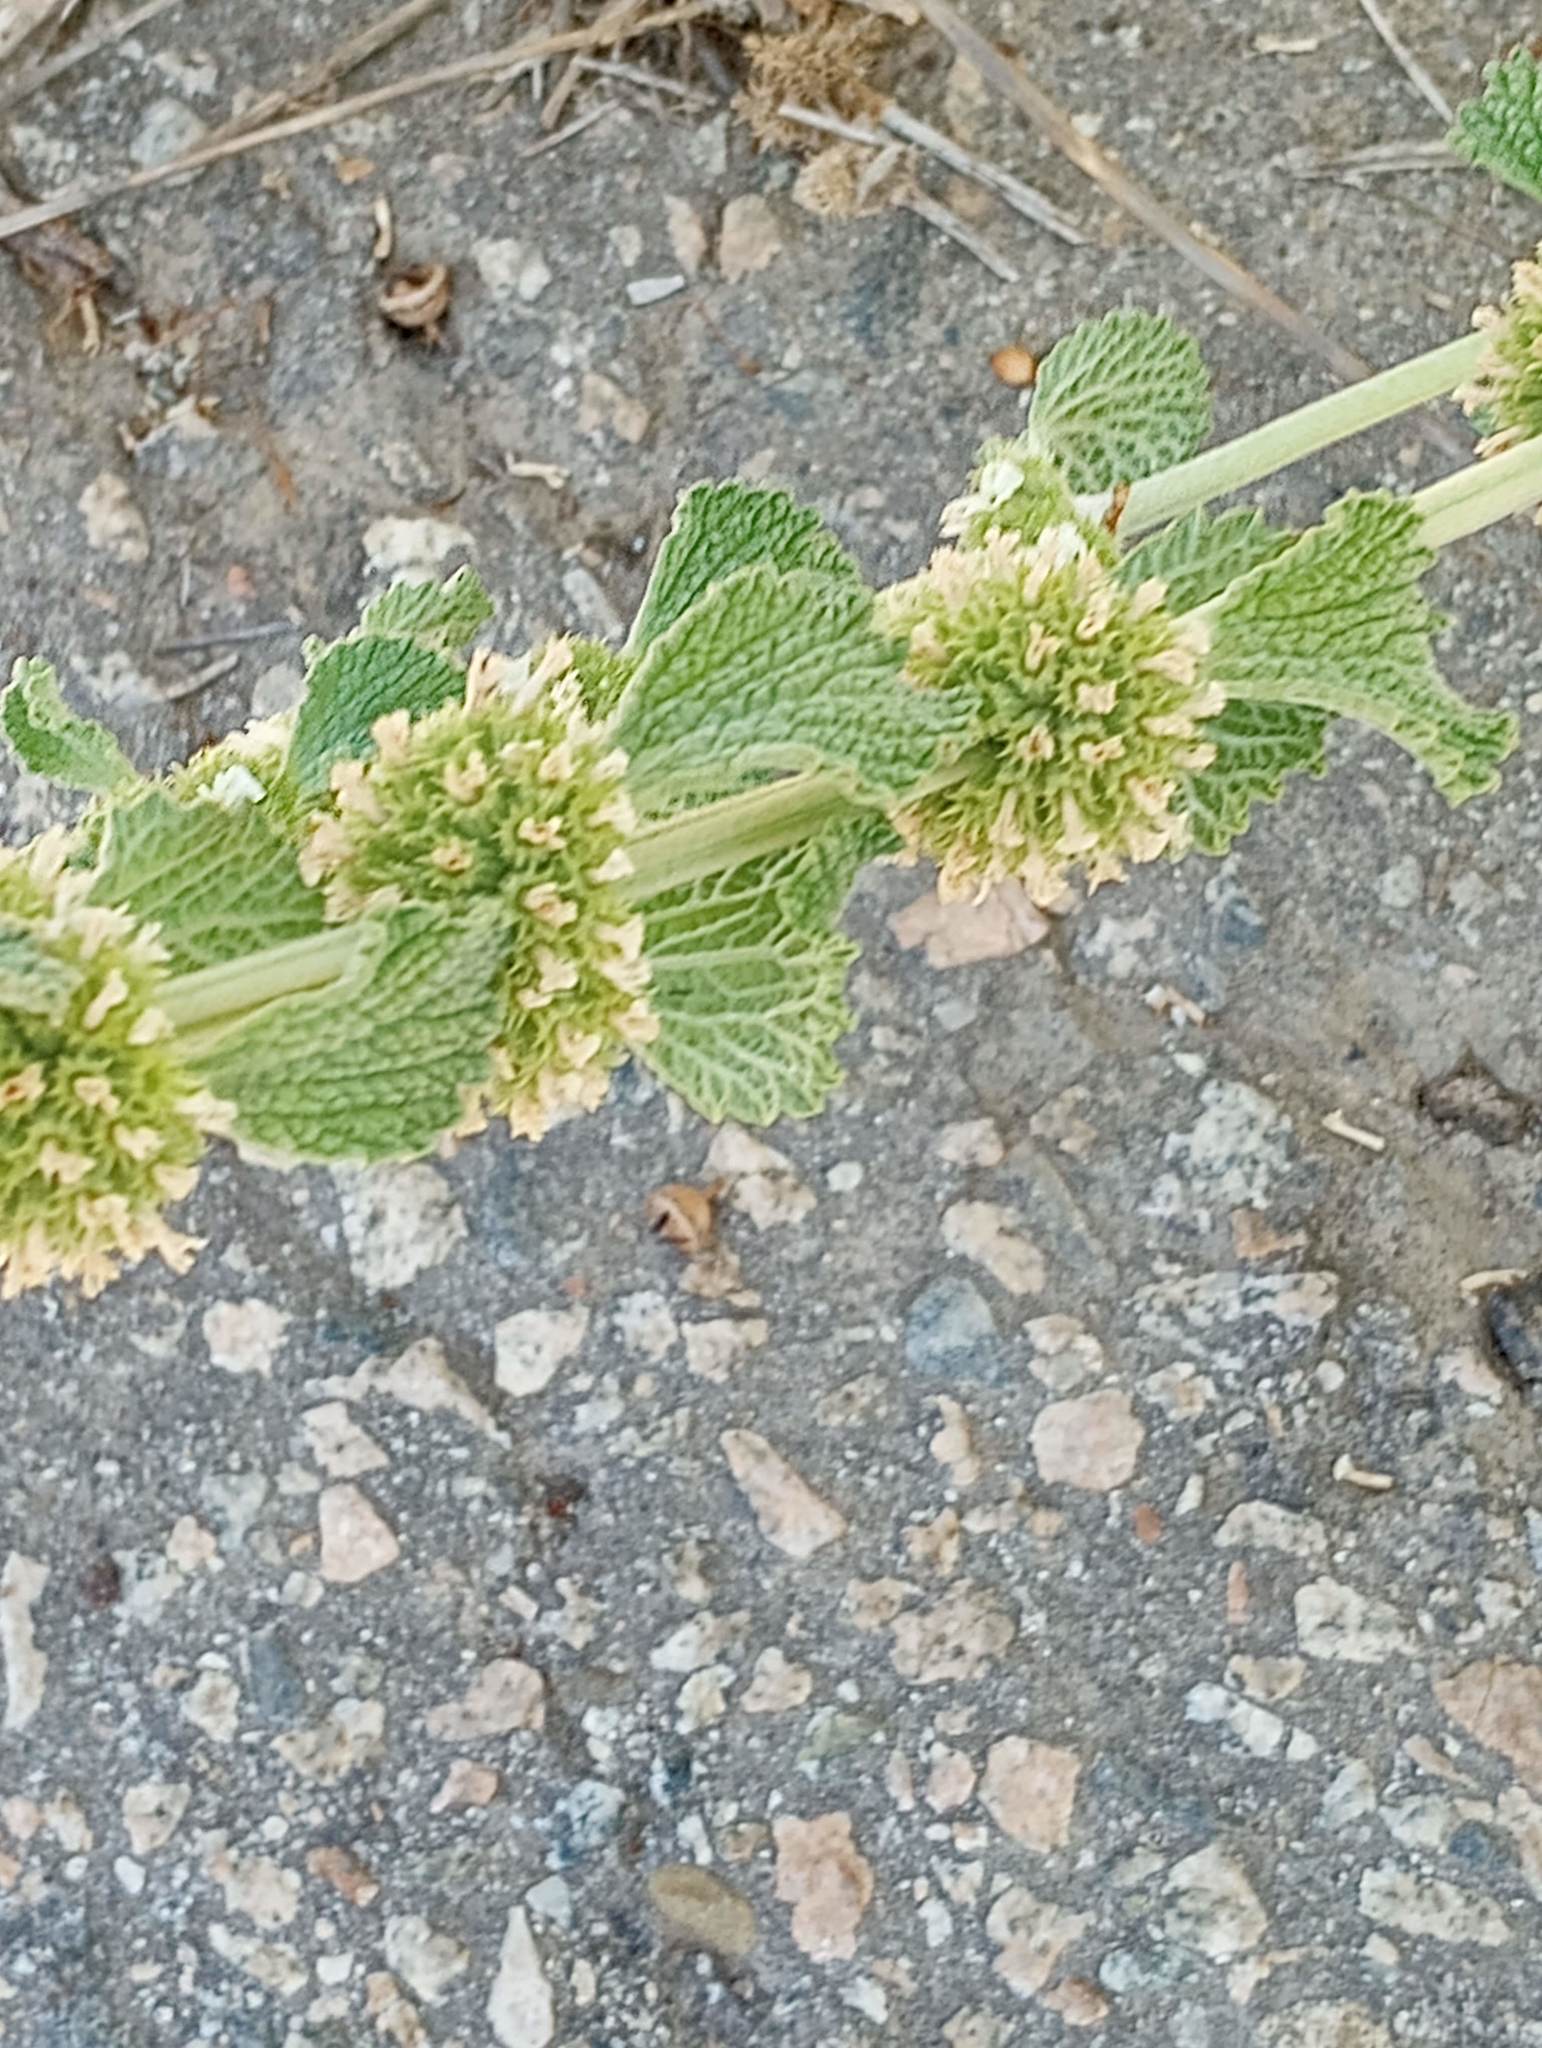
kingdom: Plantae
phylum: Tracheophyta
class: Magnoliopsida
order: Lamiales
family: Lamiaceae
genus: Marrubium
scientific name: Marrubium vulgare
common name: Horehound
